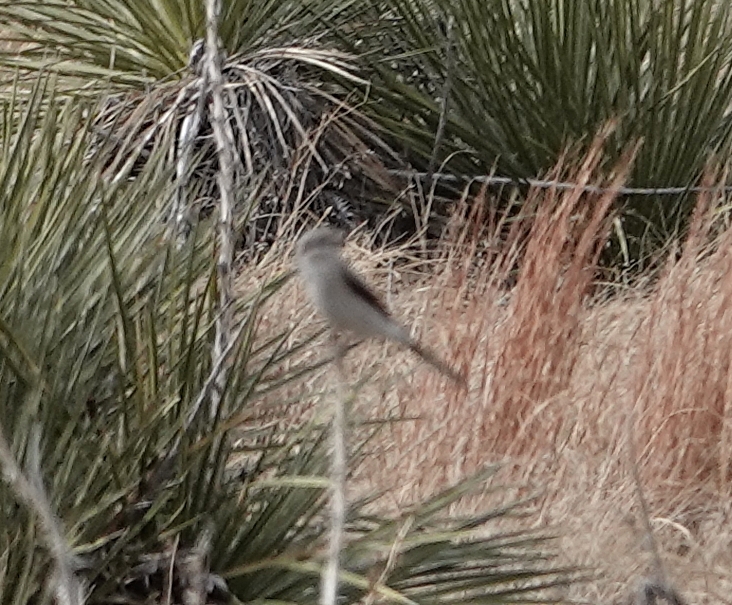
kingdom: Animalia
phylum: Chordata
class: Aves
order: Passeriformes
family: Laniidae
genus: Lanius
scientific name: Lanius borealis
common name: Northern shrike
